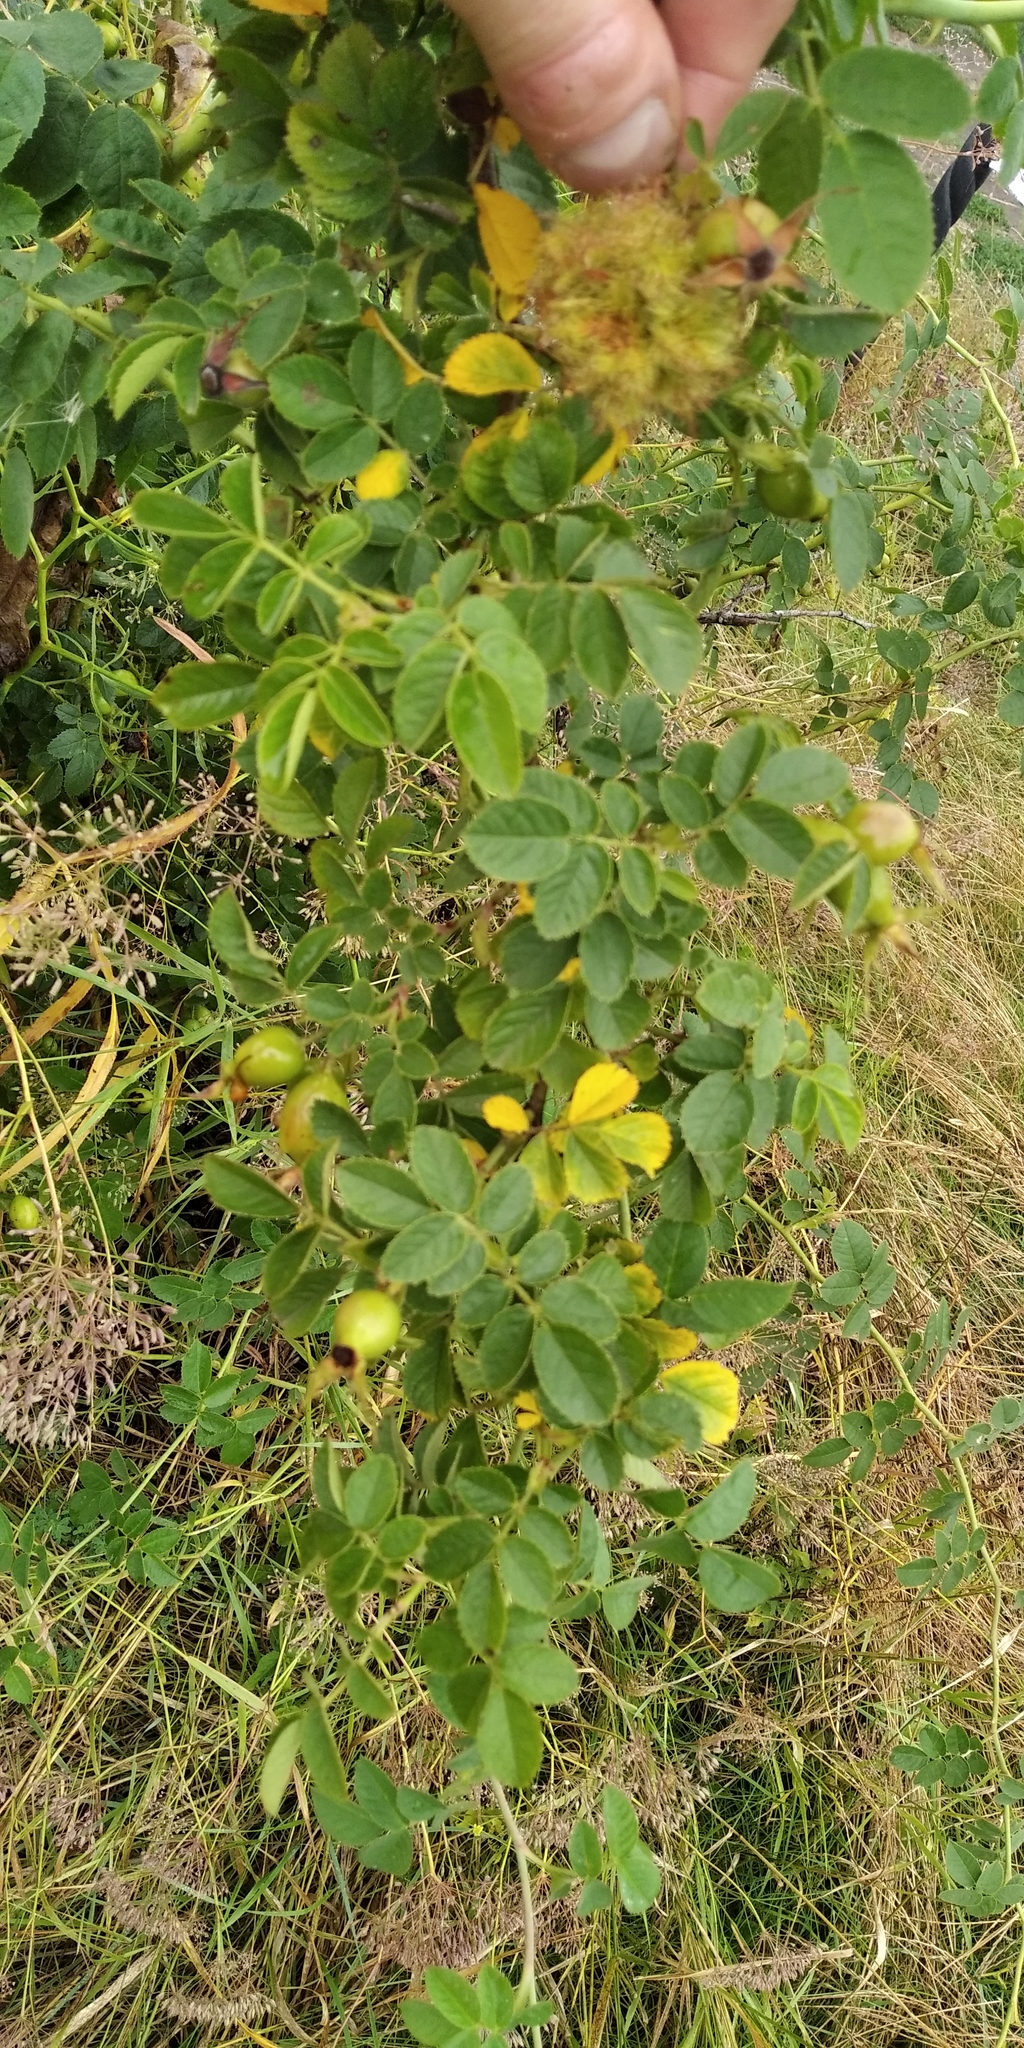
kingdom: Animalia
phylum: Arthropoda
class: Insecta
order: Hymenoptera
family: Cynipidae
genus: Diplolepis
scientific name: Diplolepis rosae
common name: Bedeguar gall
